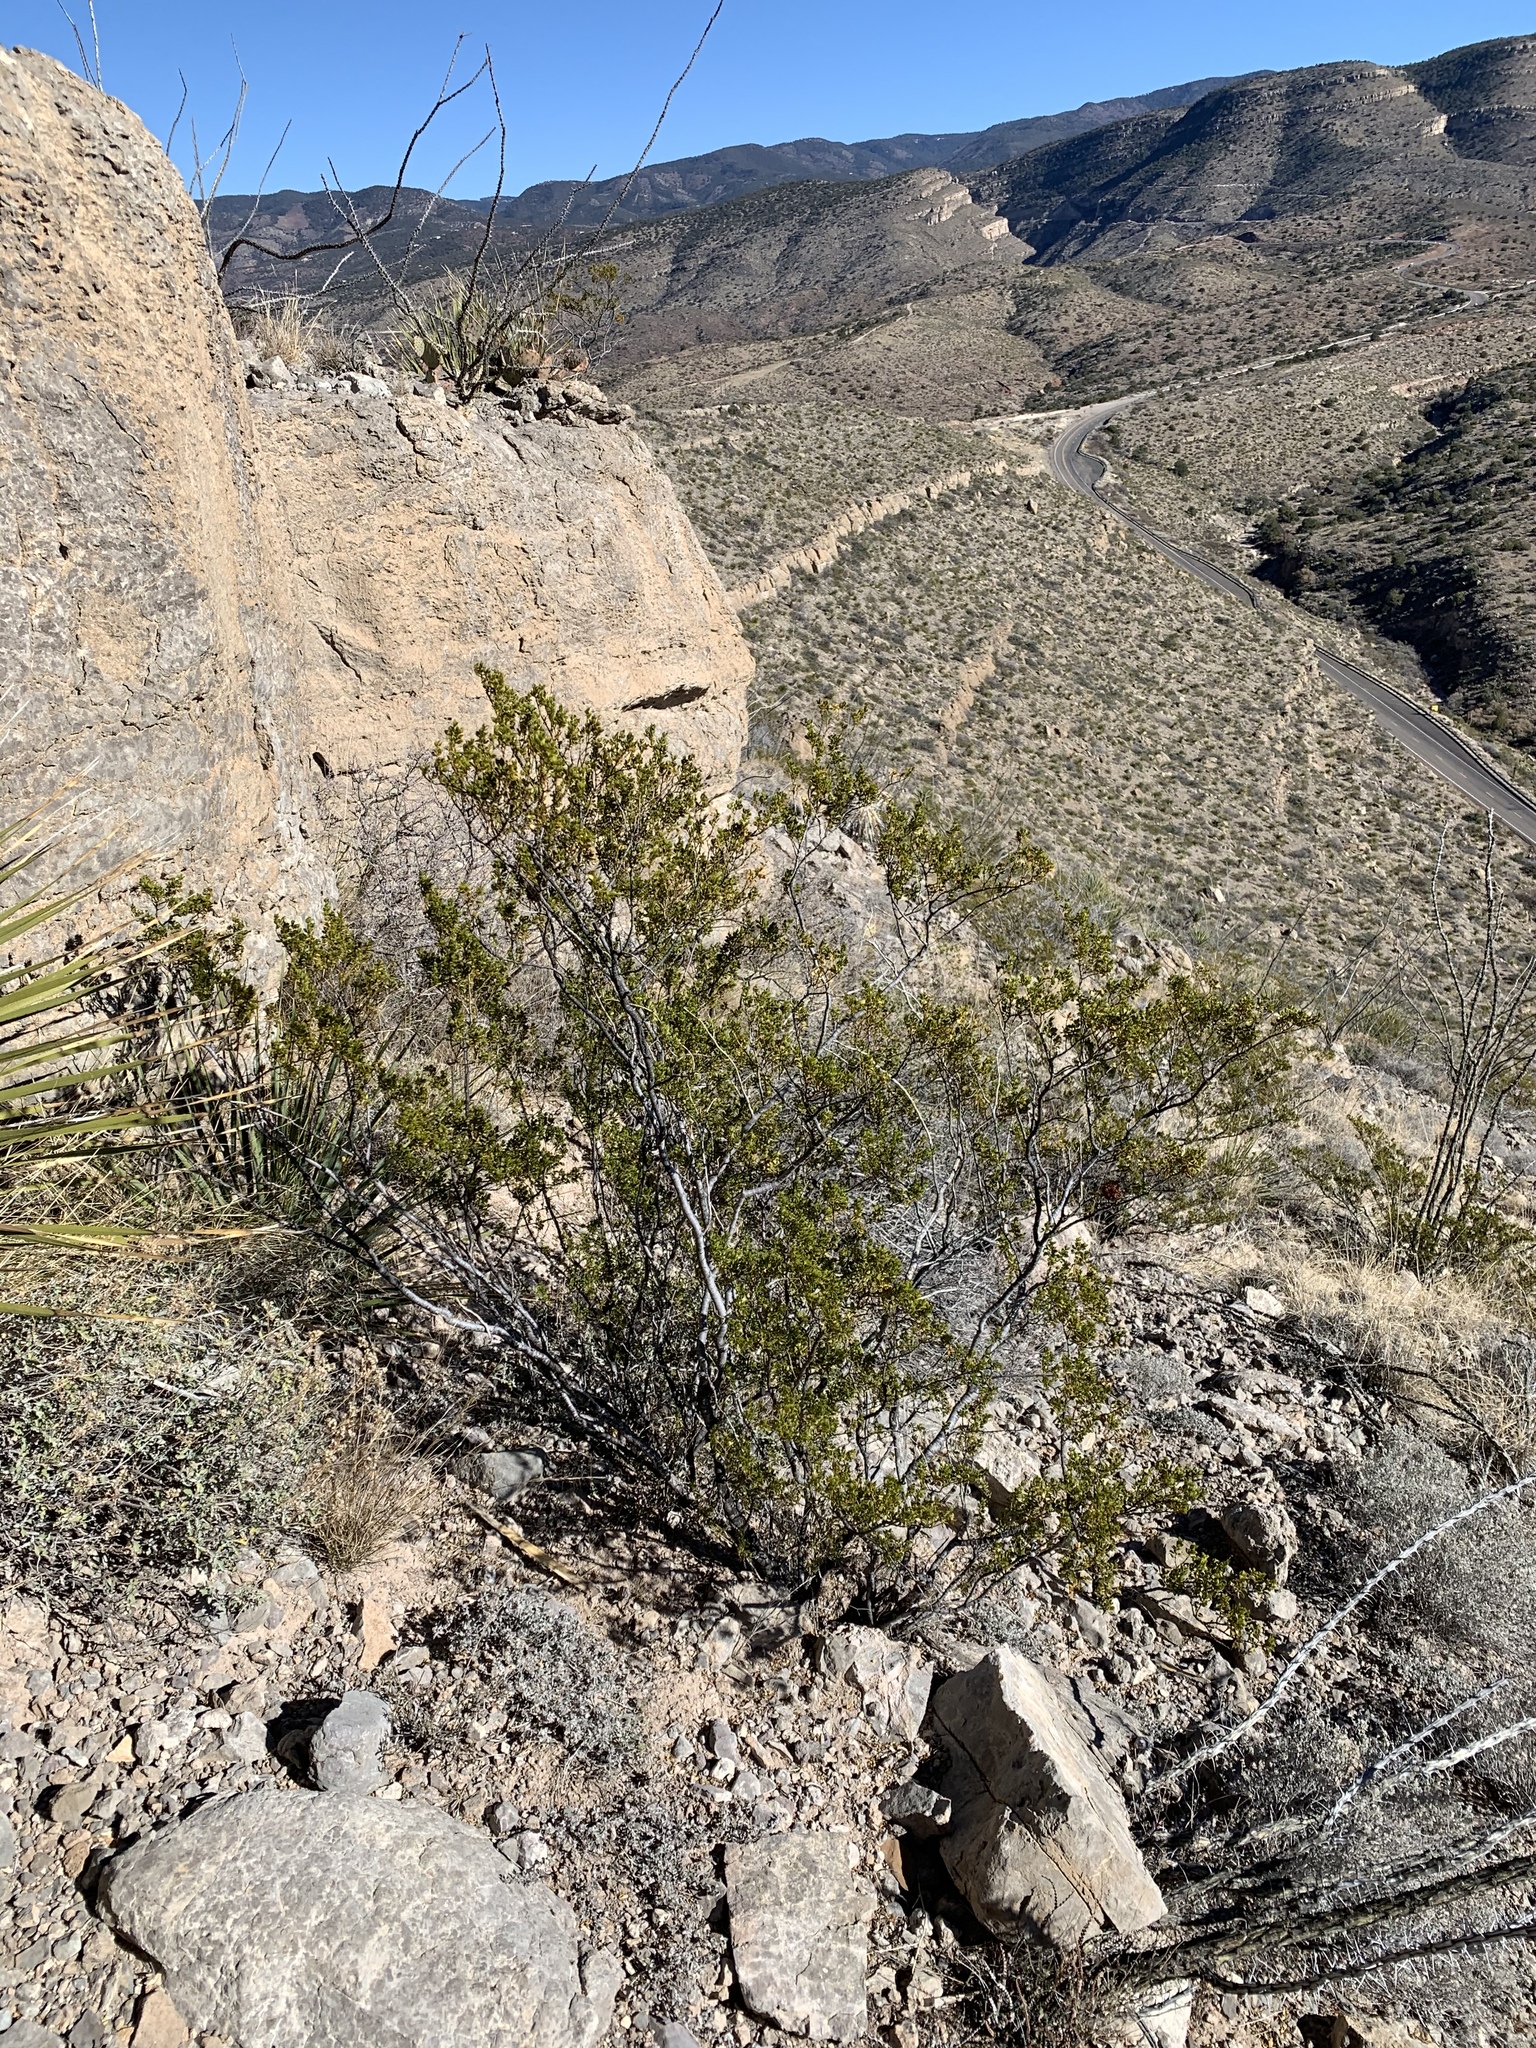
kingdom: Plantae
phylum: Tracheophyta
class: Magnoliopsida
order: Zygophyllales
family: Zygophyllaceae
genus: Larrea
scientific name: Larrea tridentata
